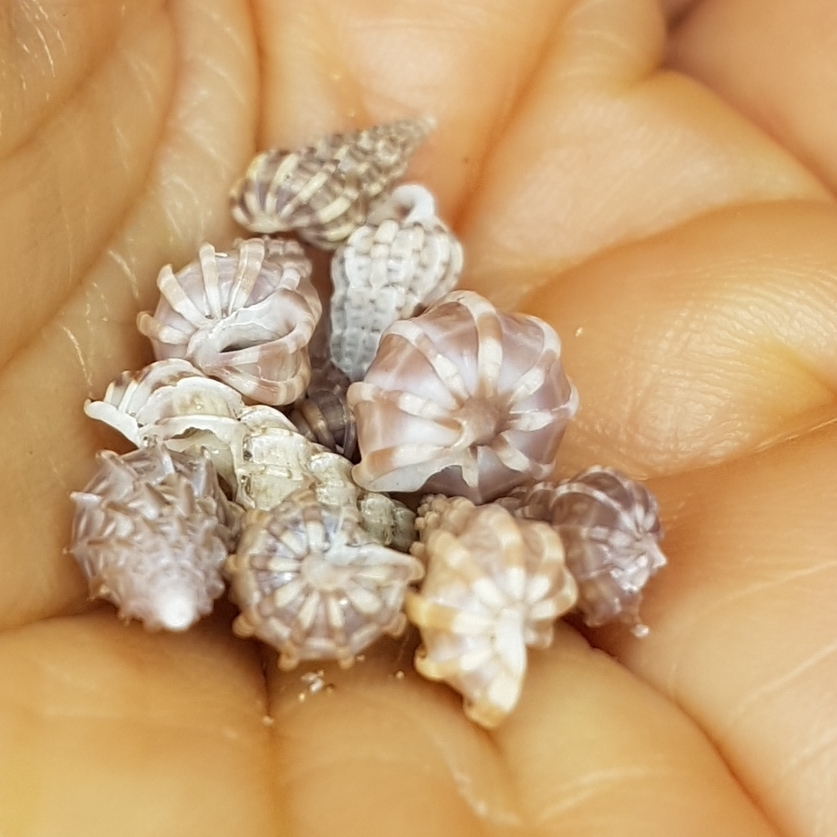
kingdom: Animalia
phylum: Mollusca
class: Gastropoda
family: Epitoniidae
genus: Epitonium
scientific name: Epitonium clathrus
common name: Common wentletrap
